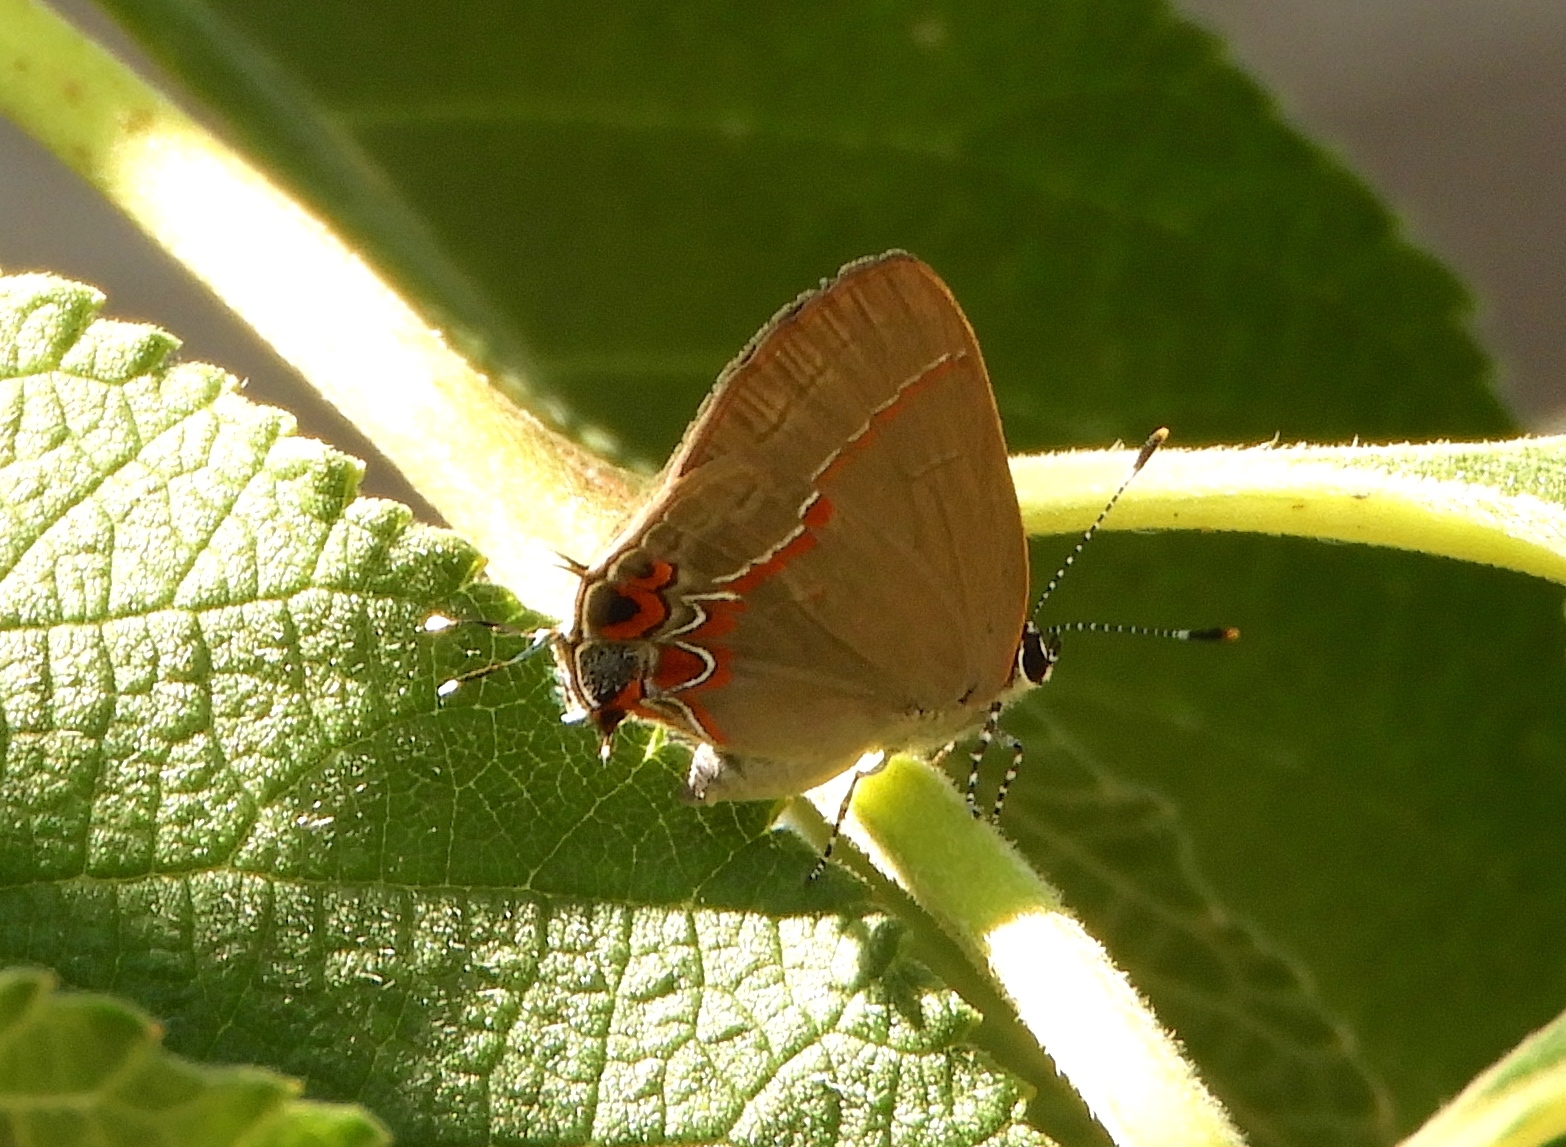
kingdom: Animalia
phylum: Arthropoda
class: Insecta
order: Lepidoptera
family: Lycaenidae
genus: Calycopis
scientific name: Calycopis
